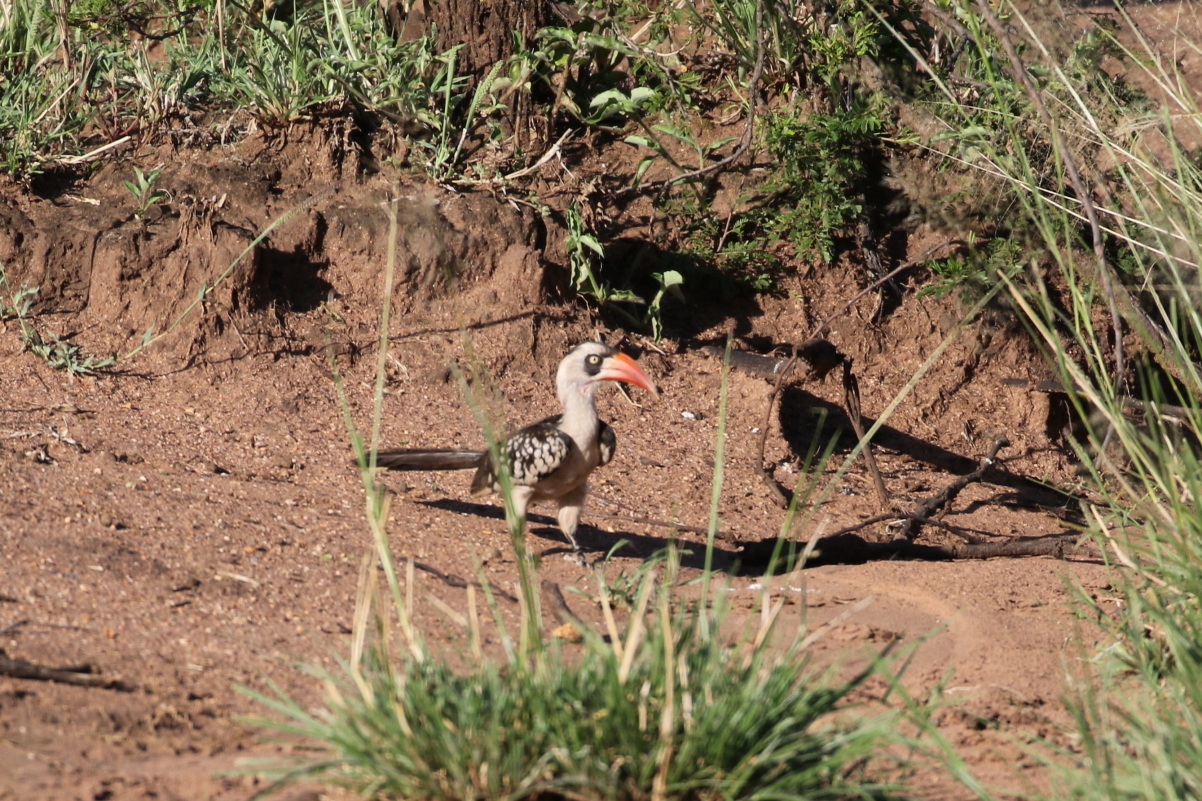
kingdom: Animalia
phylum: Chordata
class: Aves
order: Bucerotiformes
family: Bucerotidae
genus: Tockus
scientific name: Tockus ruahae
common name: Tanzanian red-billed hornbill
